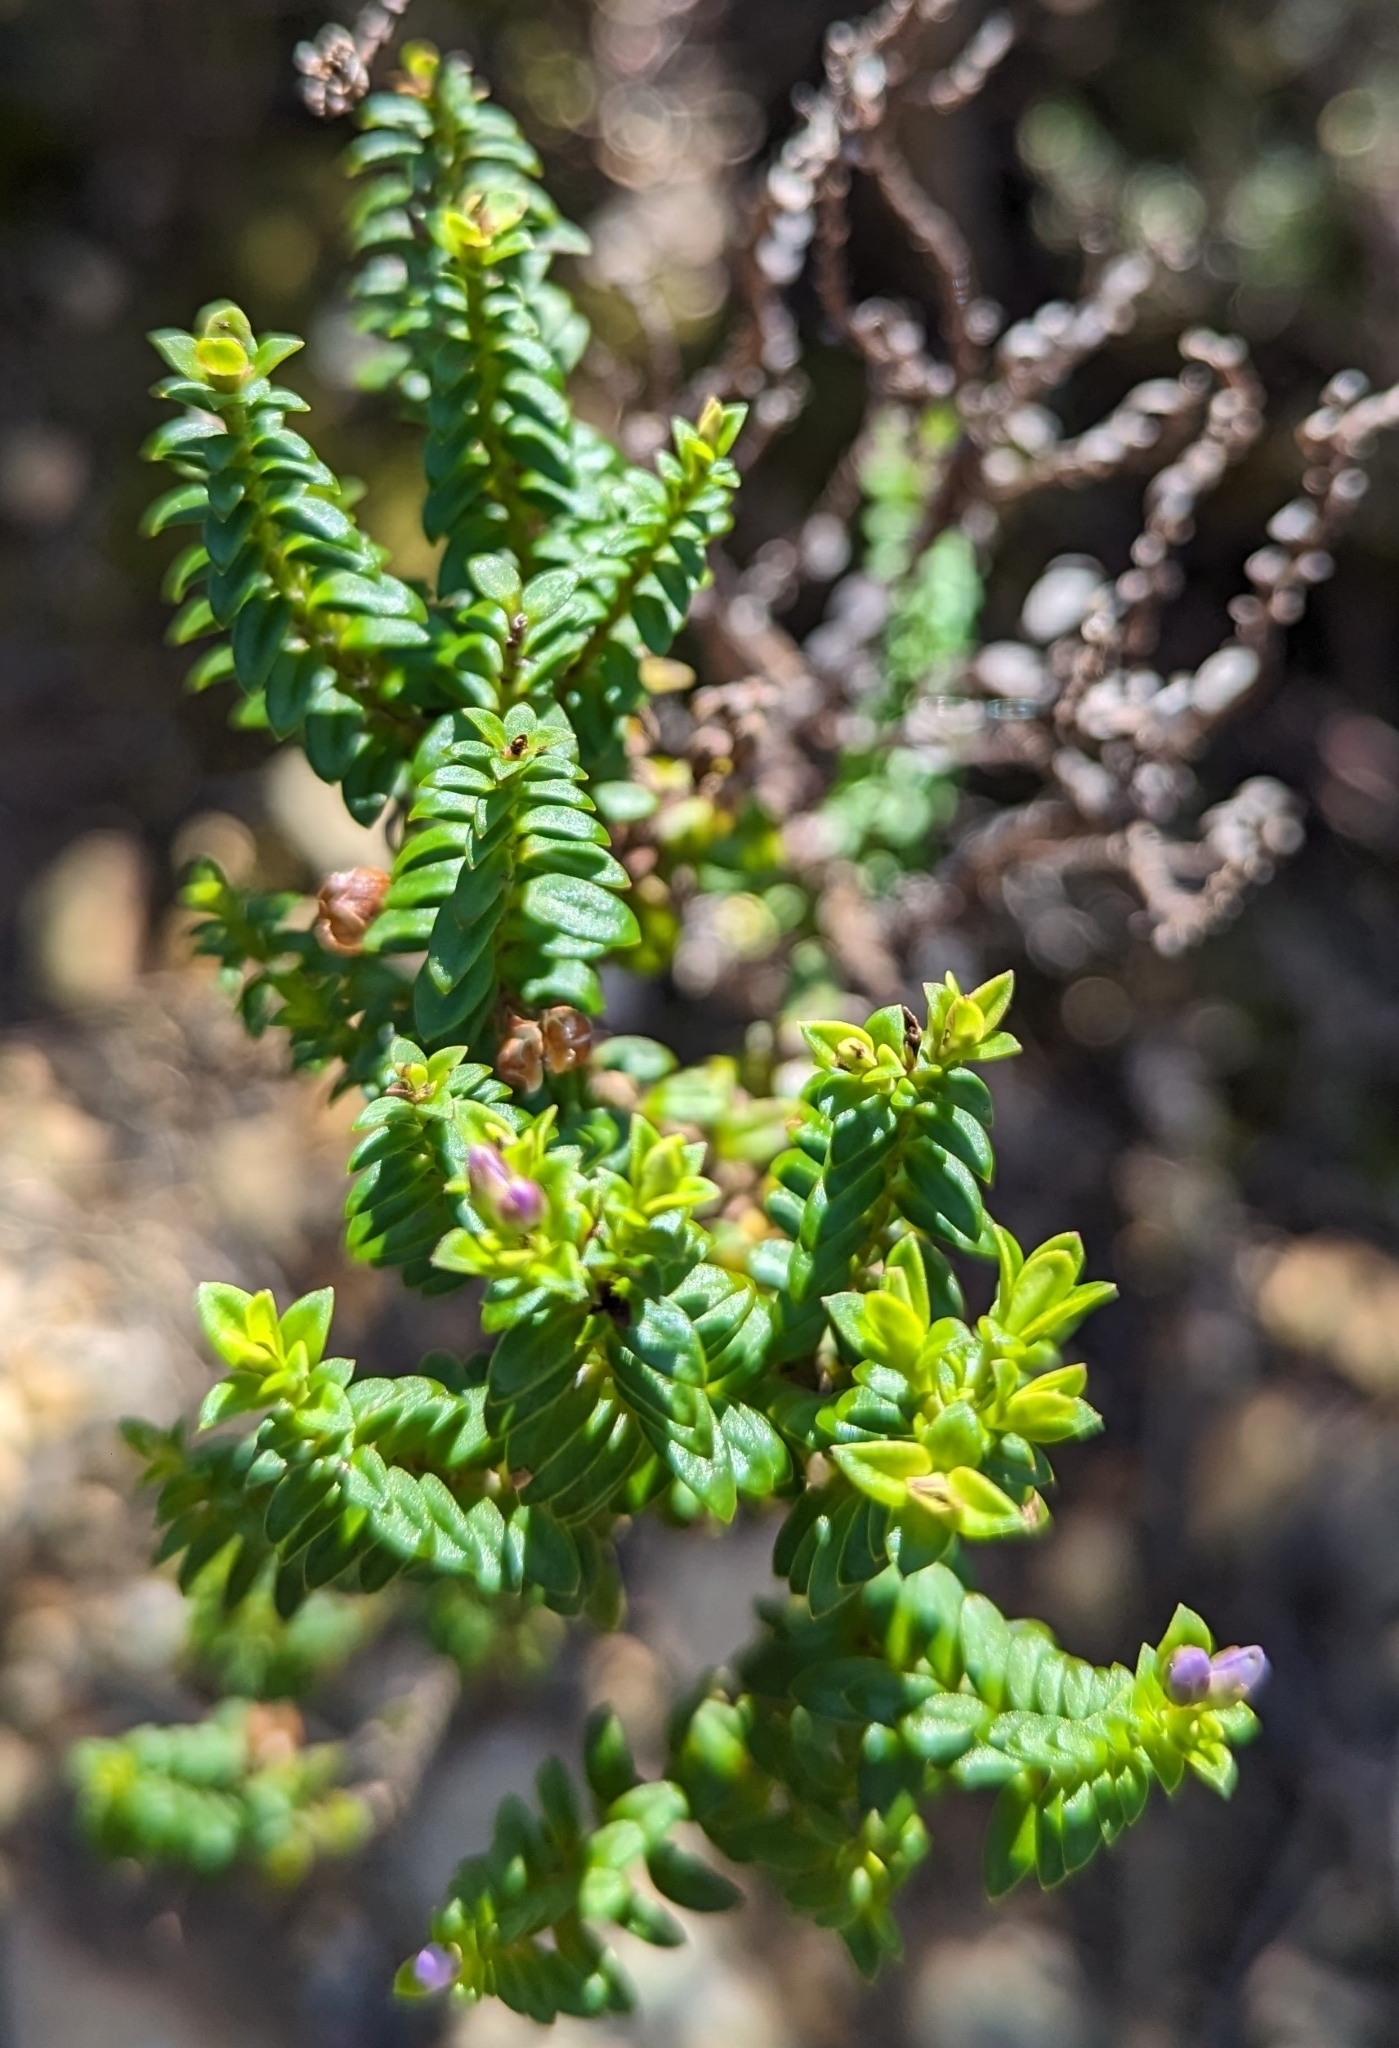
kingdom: Plantae
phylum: Tracheophyta
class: Magnoliopsida
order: Lamiales
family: Plantaginaceae
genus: Veronica
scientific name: Veronica formosa
